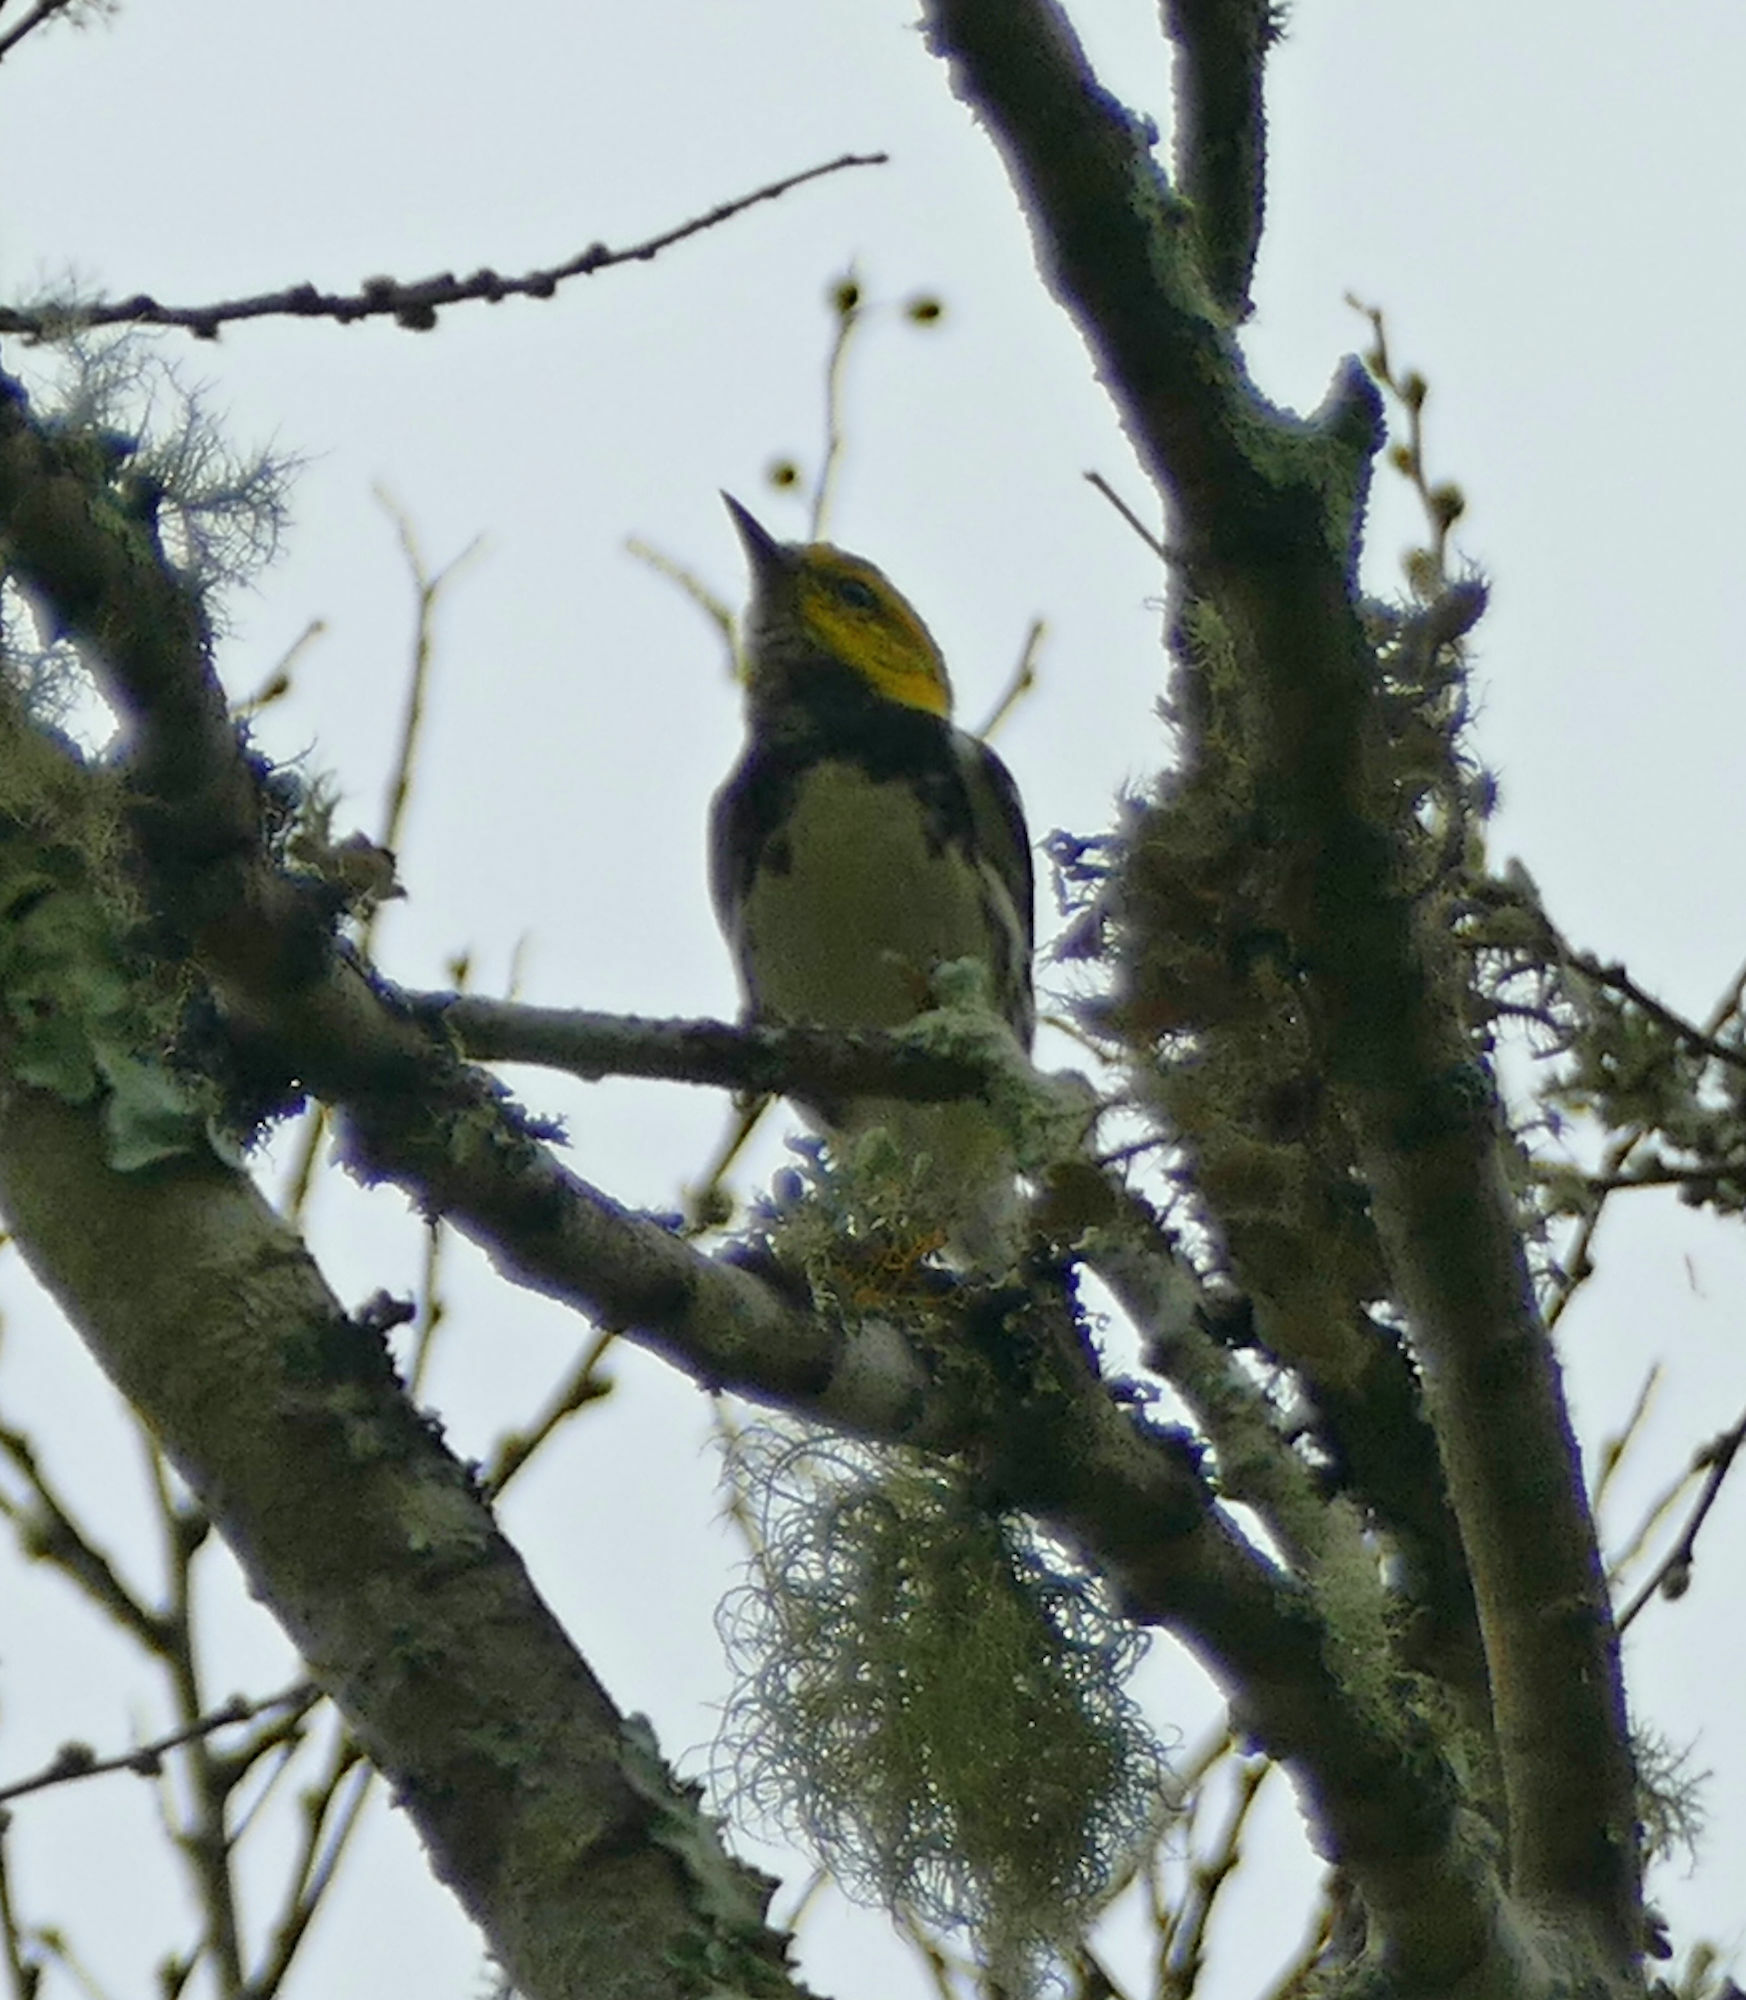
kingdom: Animalia
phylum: Chordata
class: Aves
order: Passeriformes
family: Parulidae
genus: Setophaga
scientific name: Setophaga virens
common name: Black-throated green warbler
